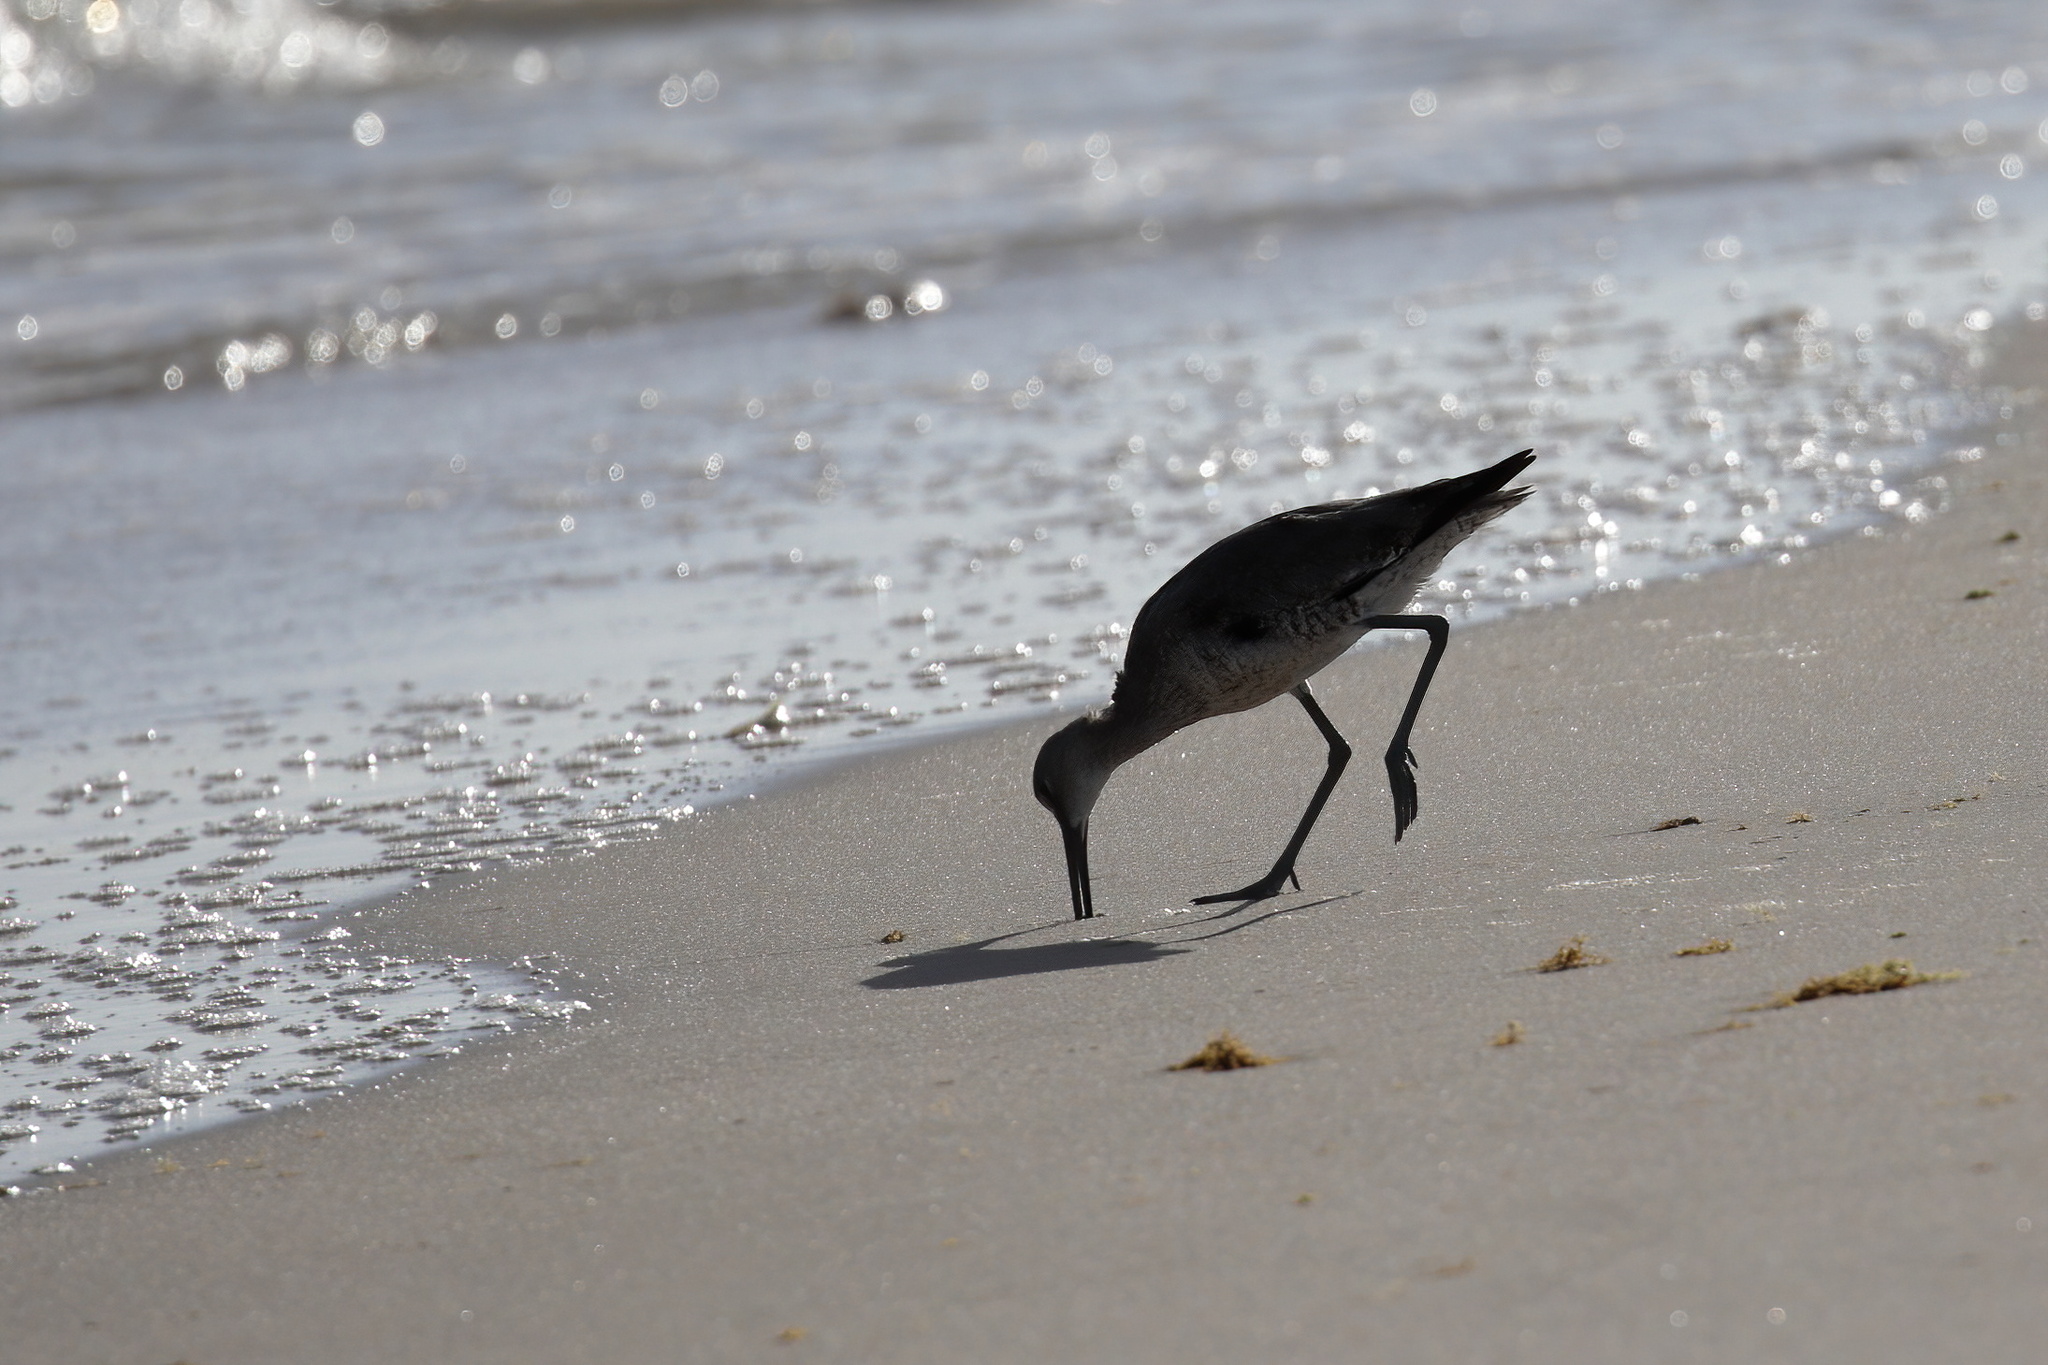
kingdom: Animalia
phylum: Chordata
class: Aves
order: Charadriiformes
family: Scolopacidae
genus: Tringa
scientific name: Tringa semipalmata
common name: Willet
